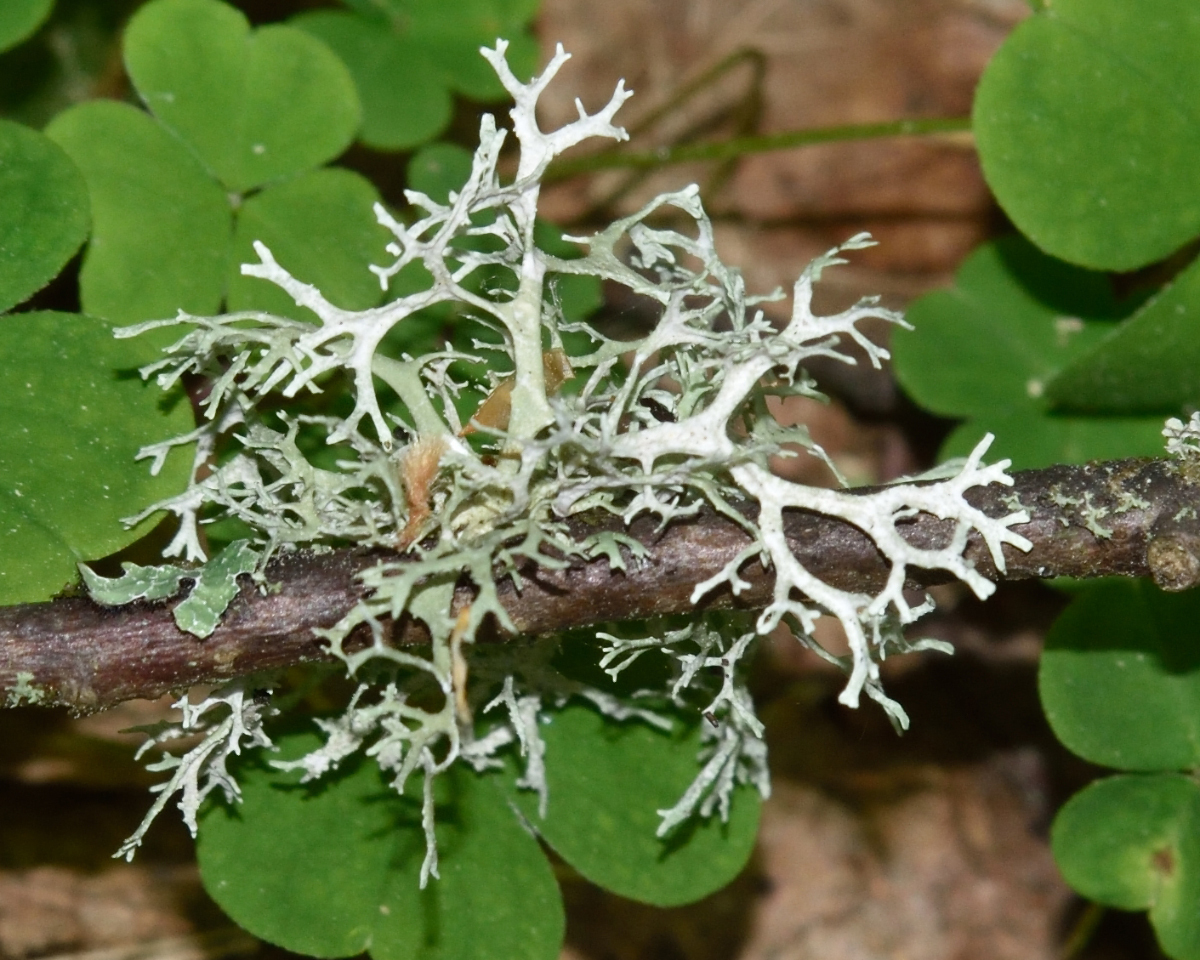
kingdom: Fungi
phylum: Ascomycota
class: Lecanoromycetes
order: Lecanorales
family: Parmeliaceae
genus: Evernia
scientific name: Evernia prunastri
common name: Oak moss
